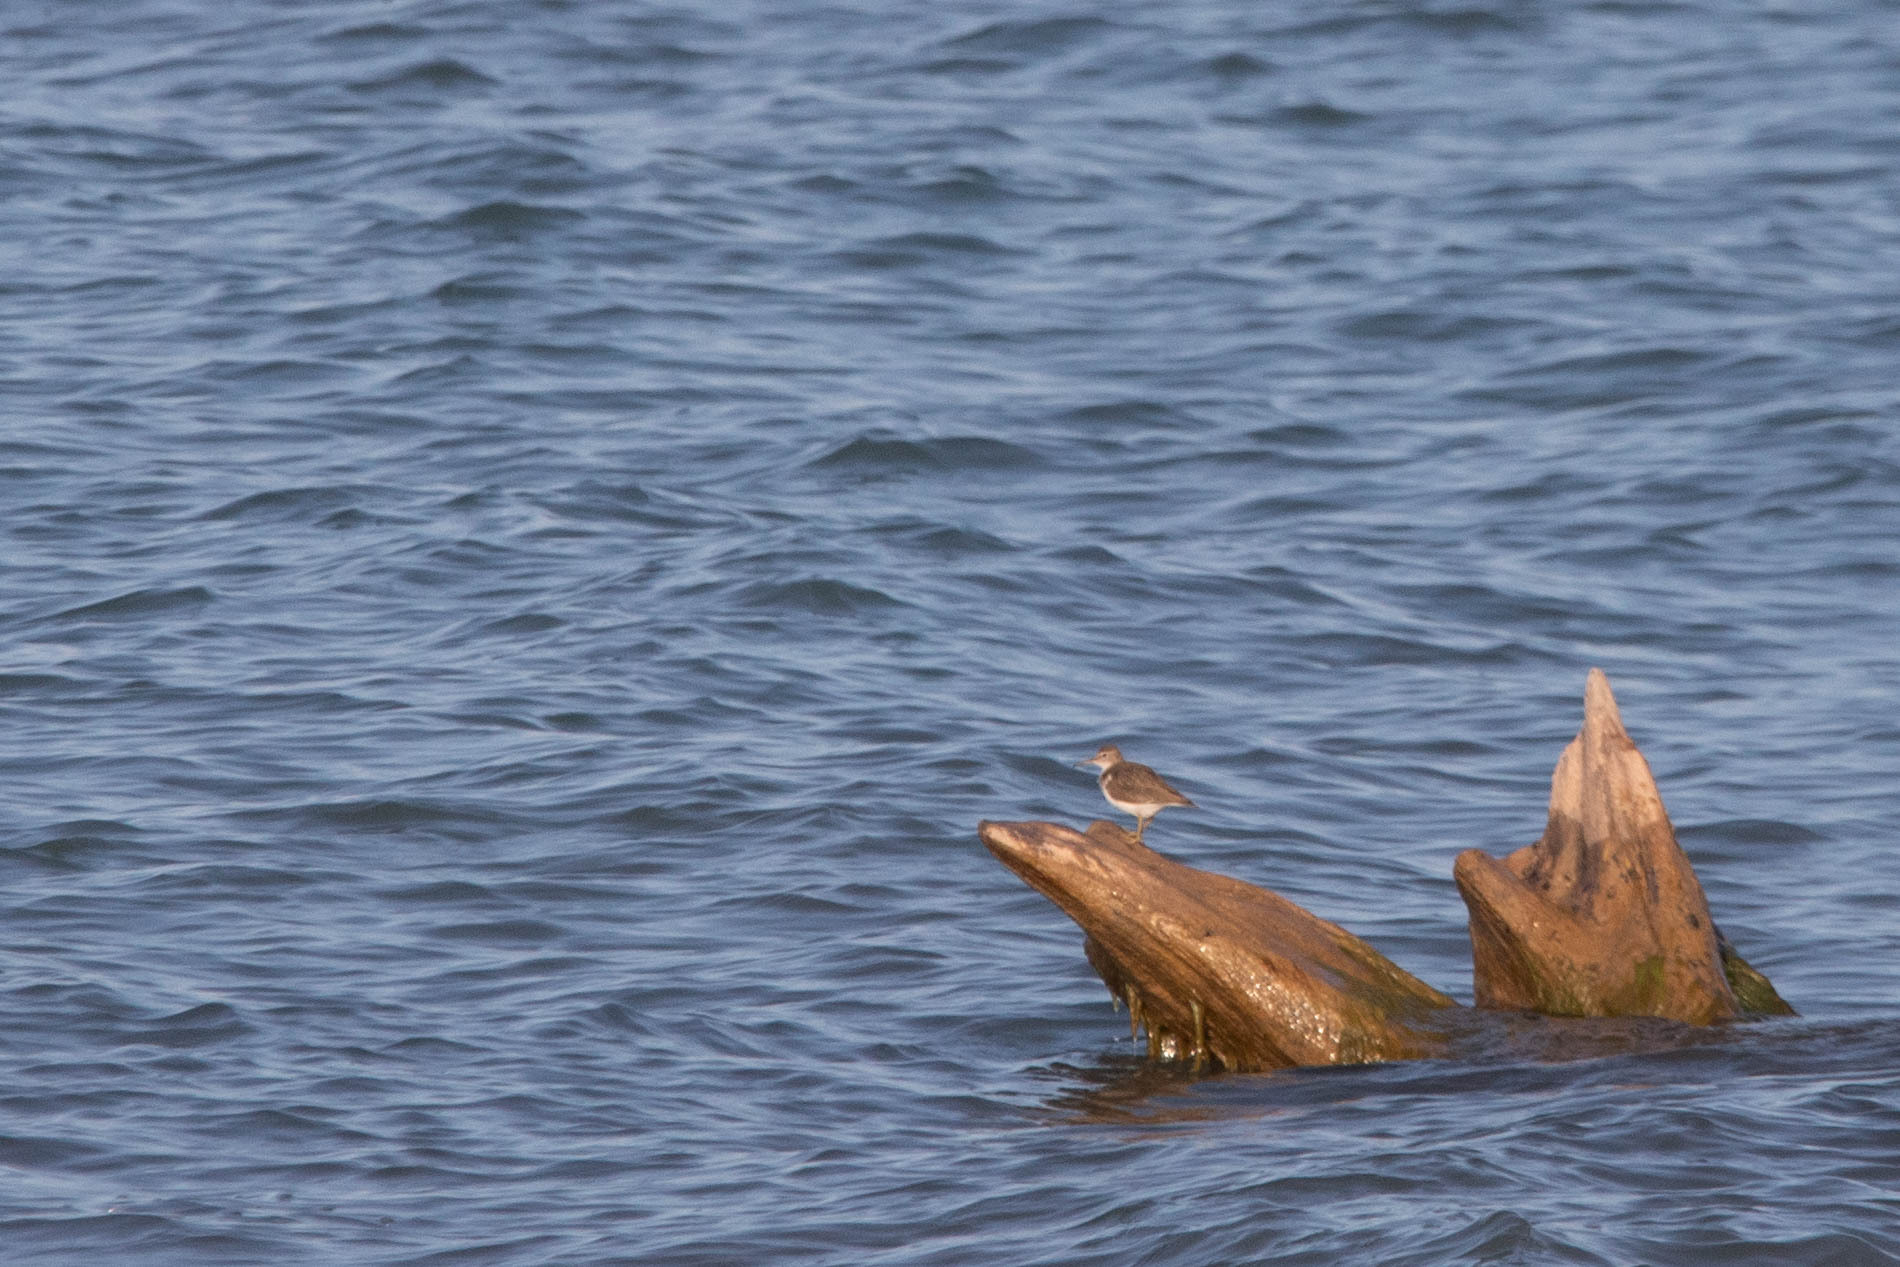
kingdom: Animalia
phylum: Chordata
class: Aves
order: Charadriiformes
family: Scolopacidae
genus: Actitis
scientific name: Actitis macularius
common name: Spotted sandpiper
